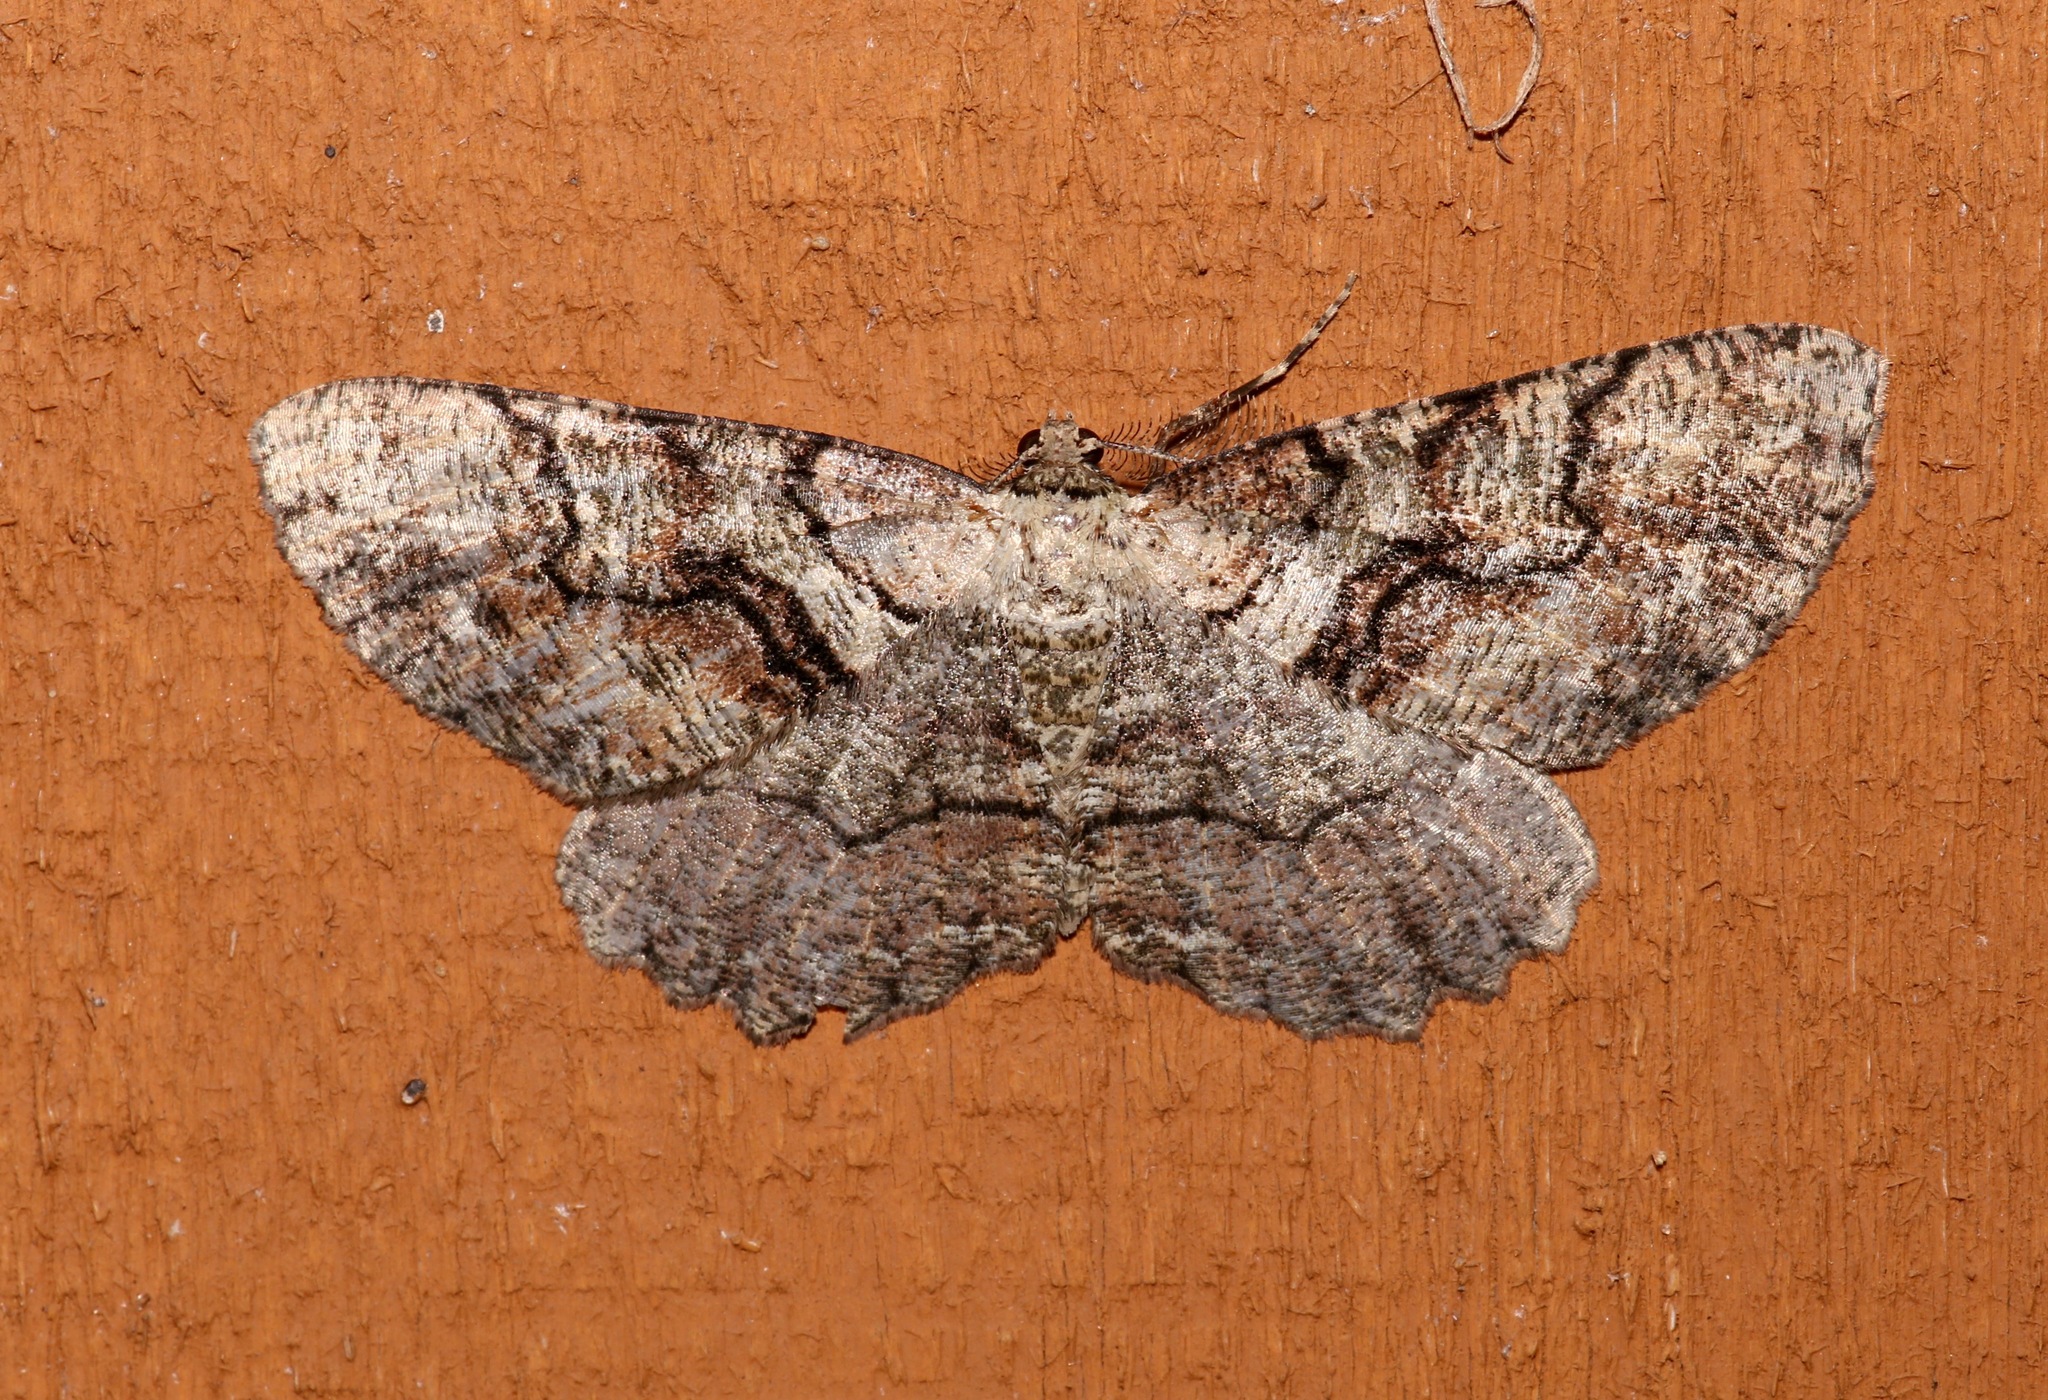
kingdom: Animalia
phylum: Arthropoda
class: Insecta
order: Lepidoptera
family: Geometridae
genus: Cymatophora
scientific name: Cymatophora approximaria
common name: Giant gray moth
